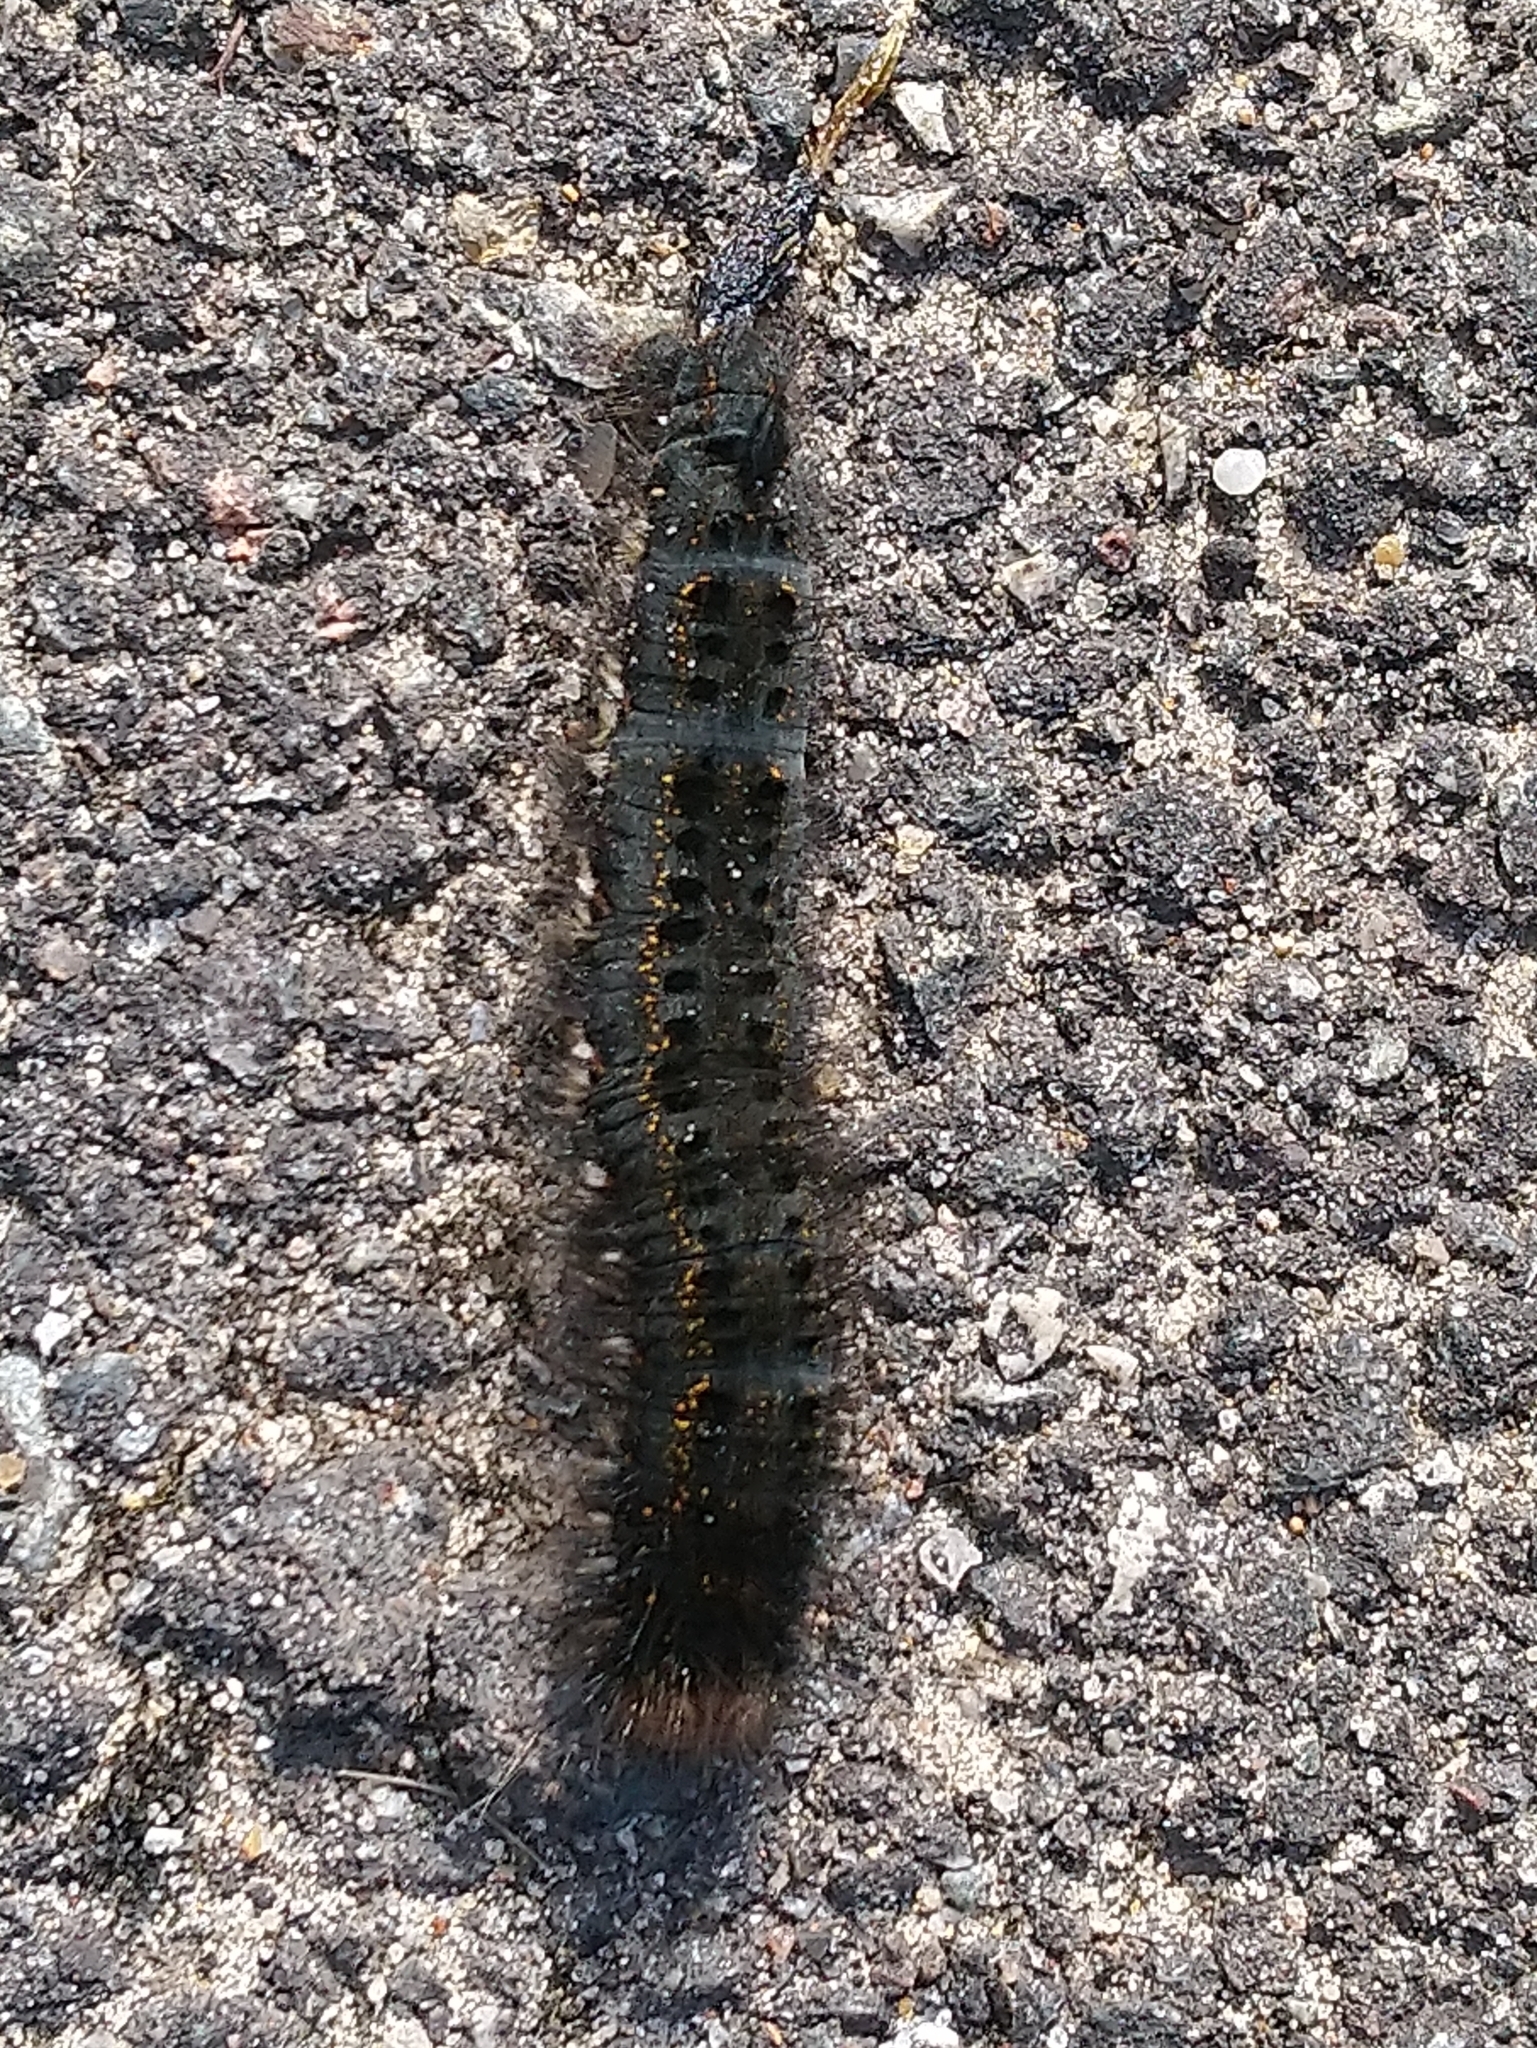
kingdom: Animalia
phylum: Arthropoda
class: Insecta
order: Lepidoptera
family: Lasiocampidae
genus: Euthrix
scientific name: Euthrix potatoria
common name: Drinker
